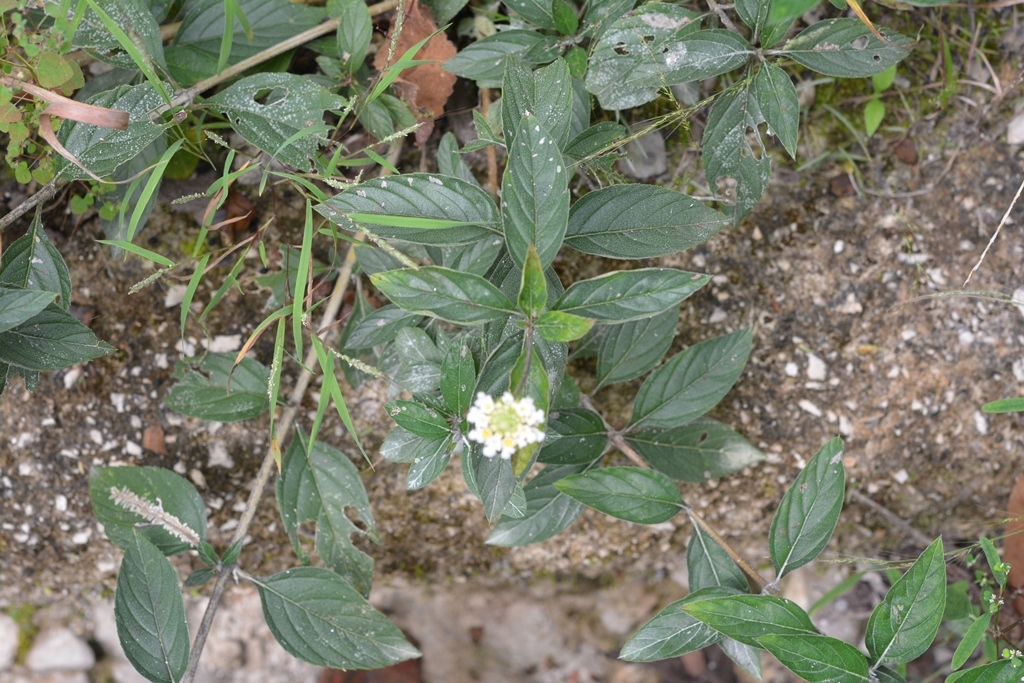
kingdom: Plantae
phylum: Tracheophyta
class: Magnoliopsida
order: Lamiales
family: Verbenaceae
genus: Lantana
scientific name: Lantana achyranthifolia
